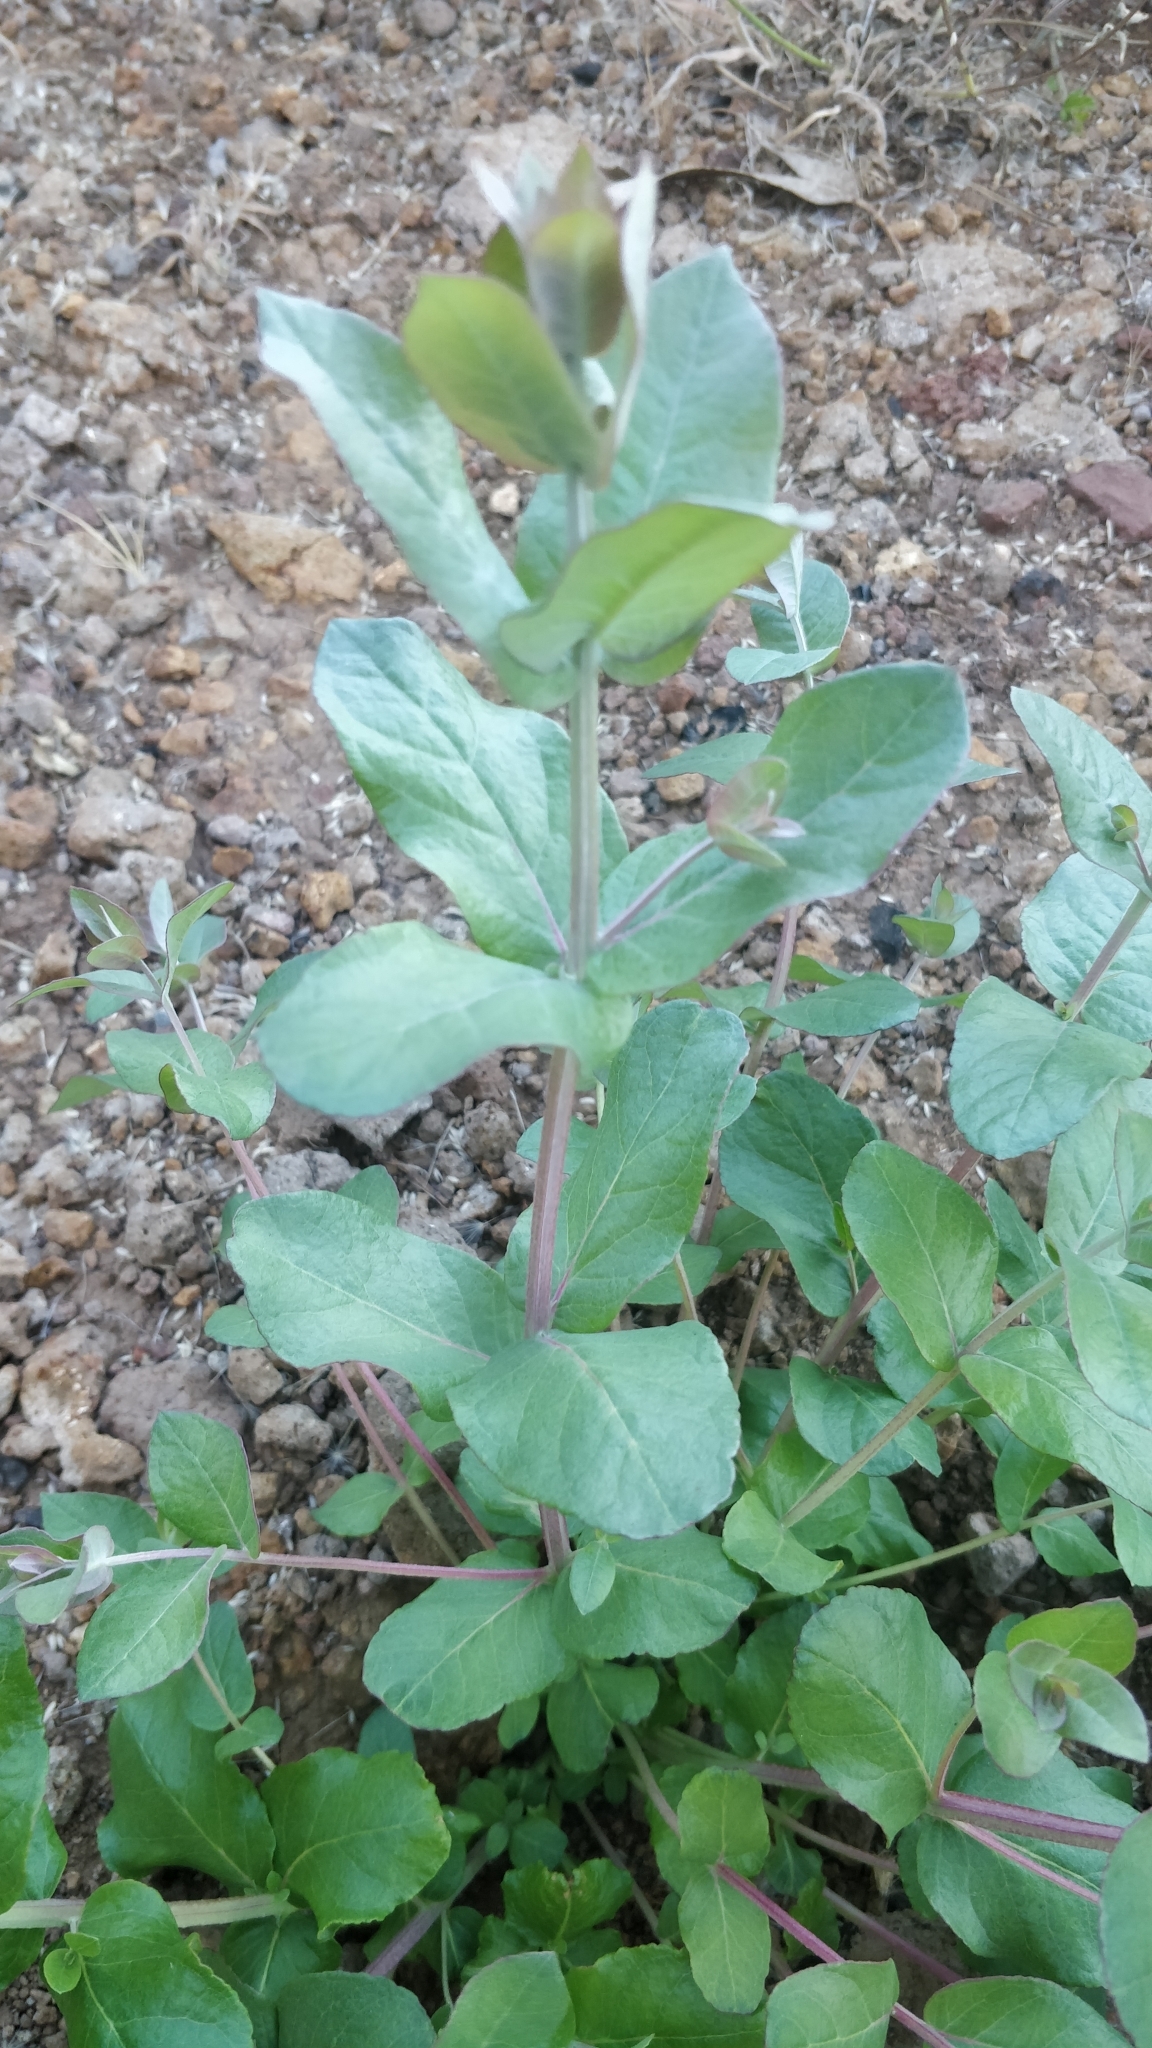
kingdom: Plantae
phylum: Tracheophyta
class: Magnoliopsida
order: Myrtales
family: Myrtaceae
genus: Eucalyptus
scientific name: Eucalyptus globulus
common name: Southern blue-gum
